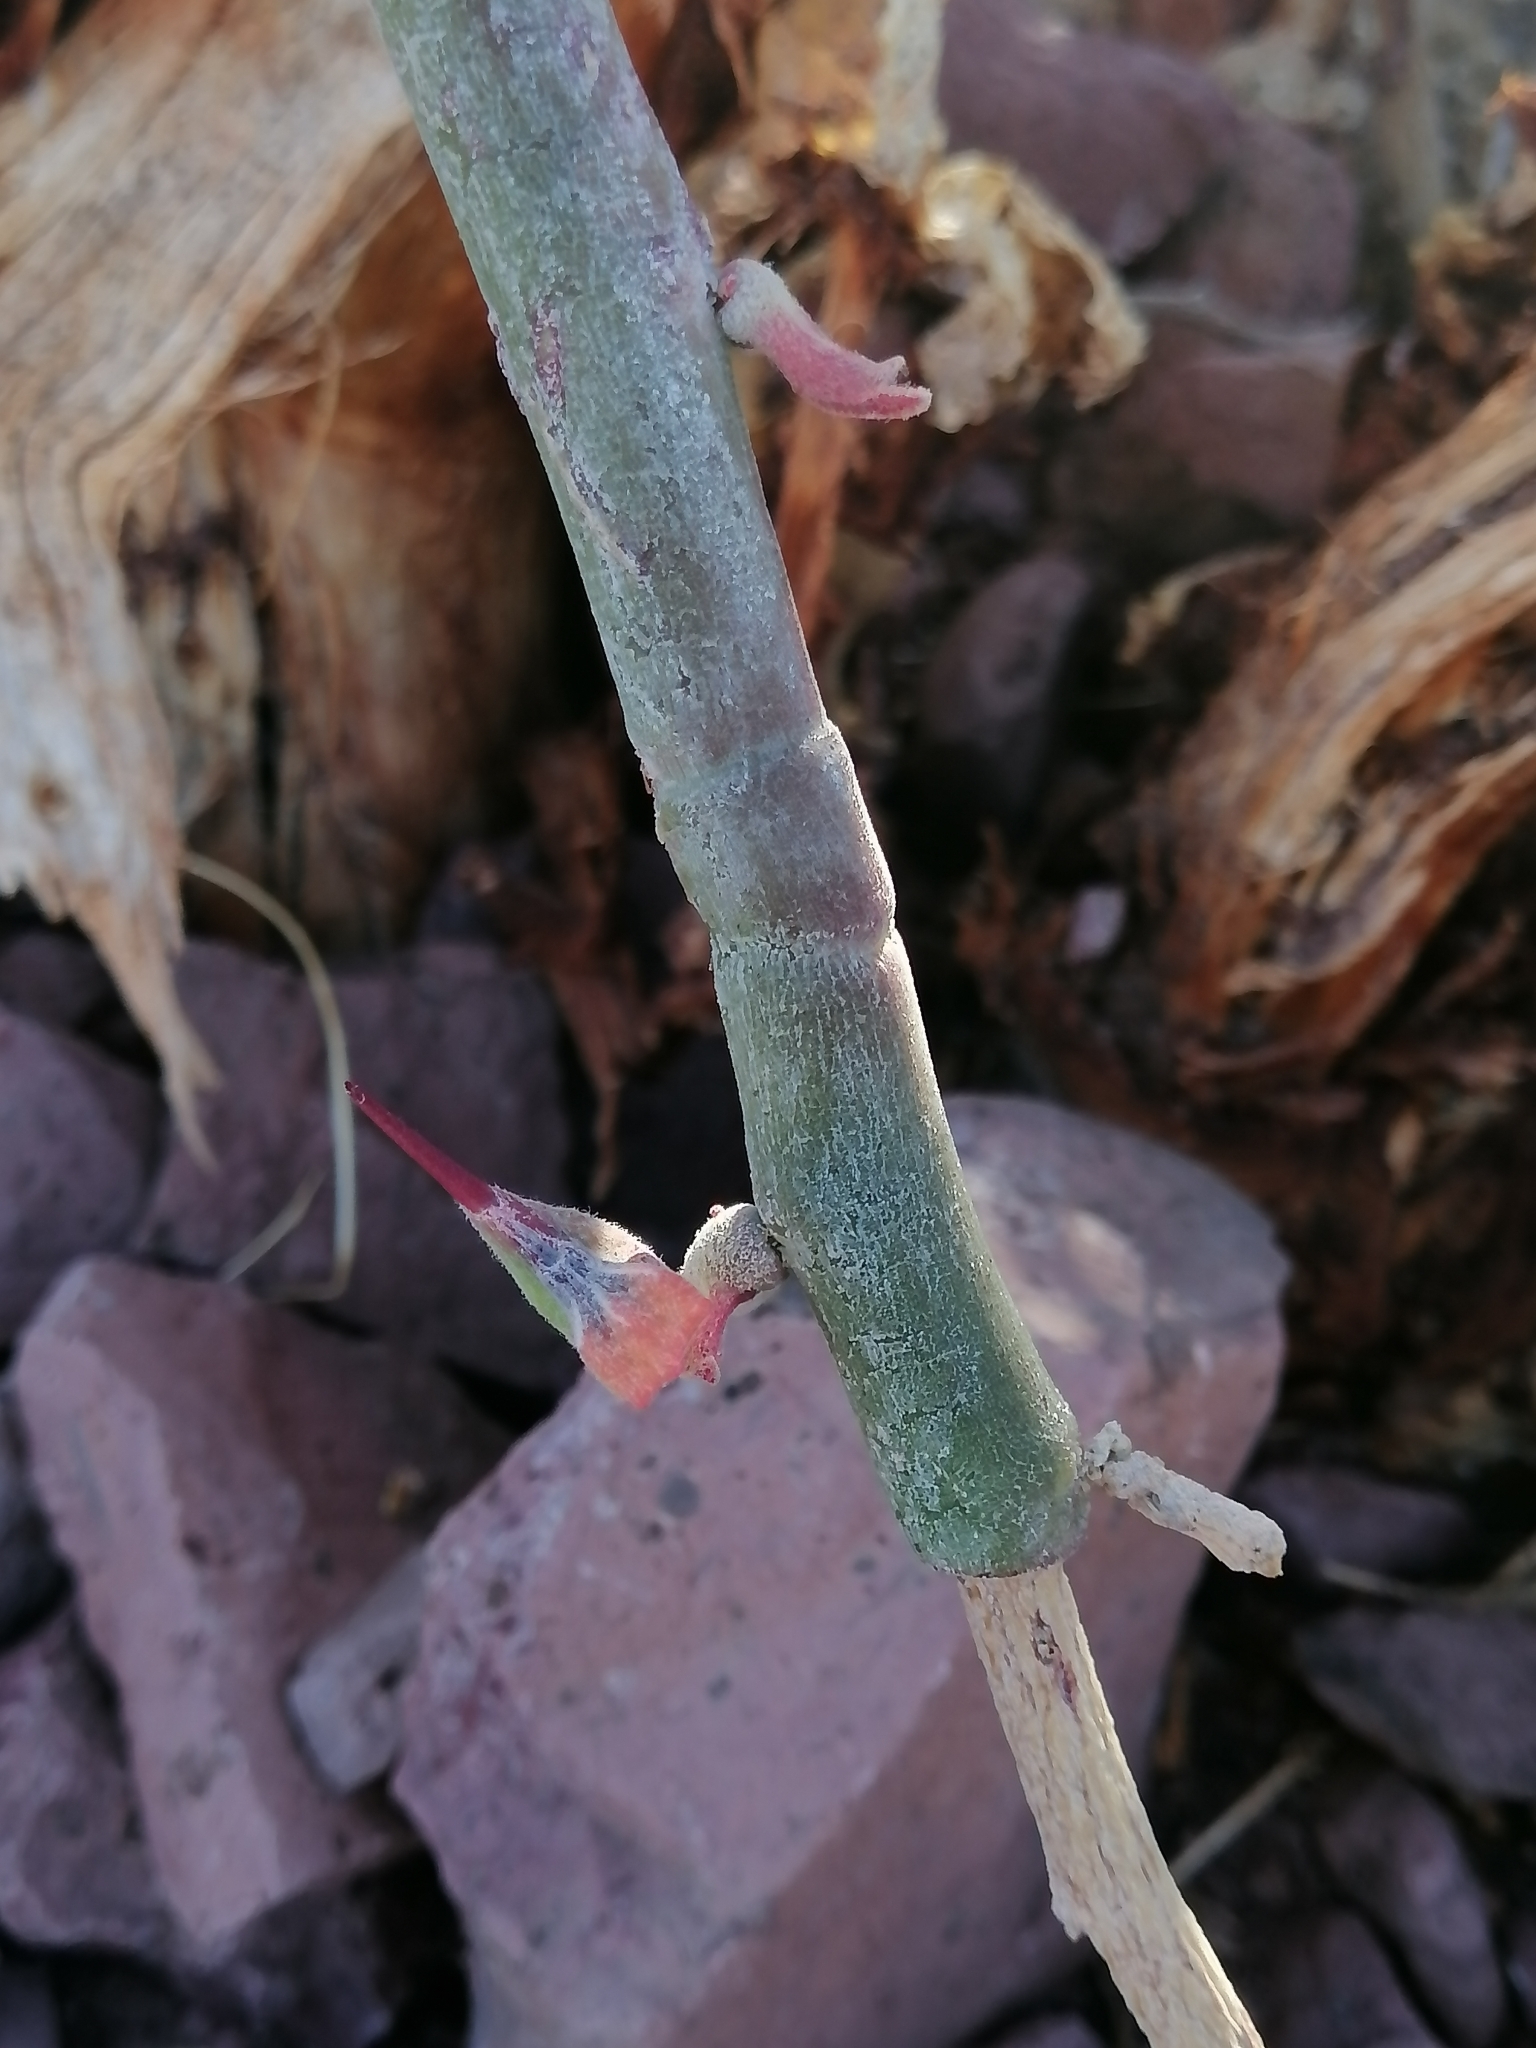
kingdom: Plantae
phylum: Tracheophyta
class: Magnoliopsida
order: Malpighiales
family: Euphorbiaceae
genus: Euphorbia
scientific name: Euphorbia lomelii
